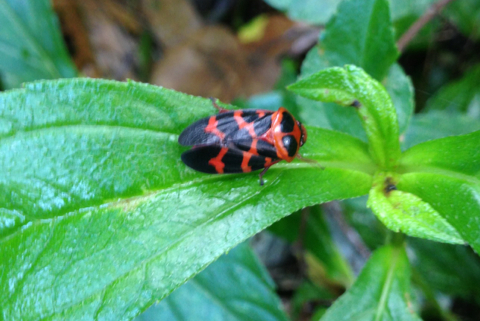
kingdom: Animalia
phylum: Arthropoda
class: Insecta
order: Hemiptera
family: Cercopidae
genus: Cosmoscarta
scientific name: Cosmoscarta bispecularis
